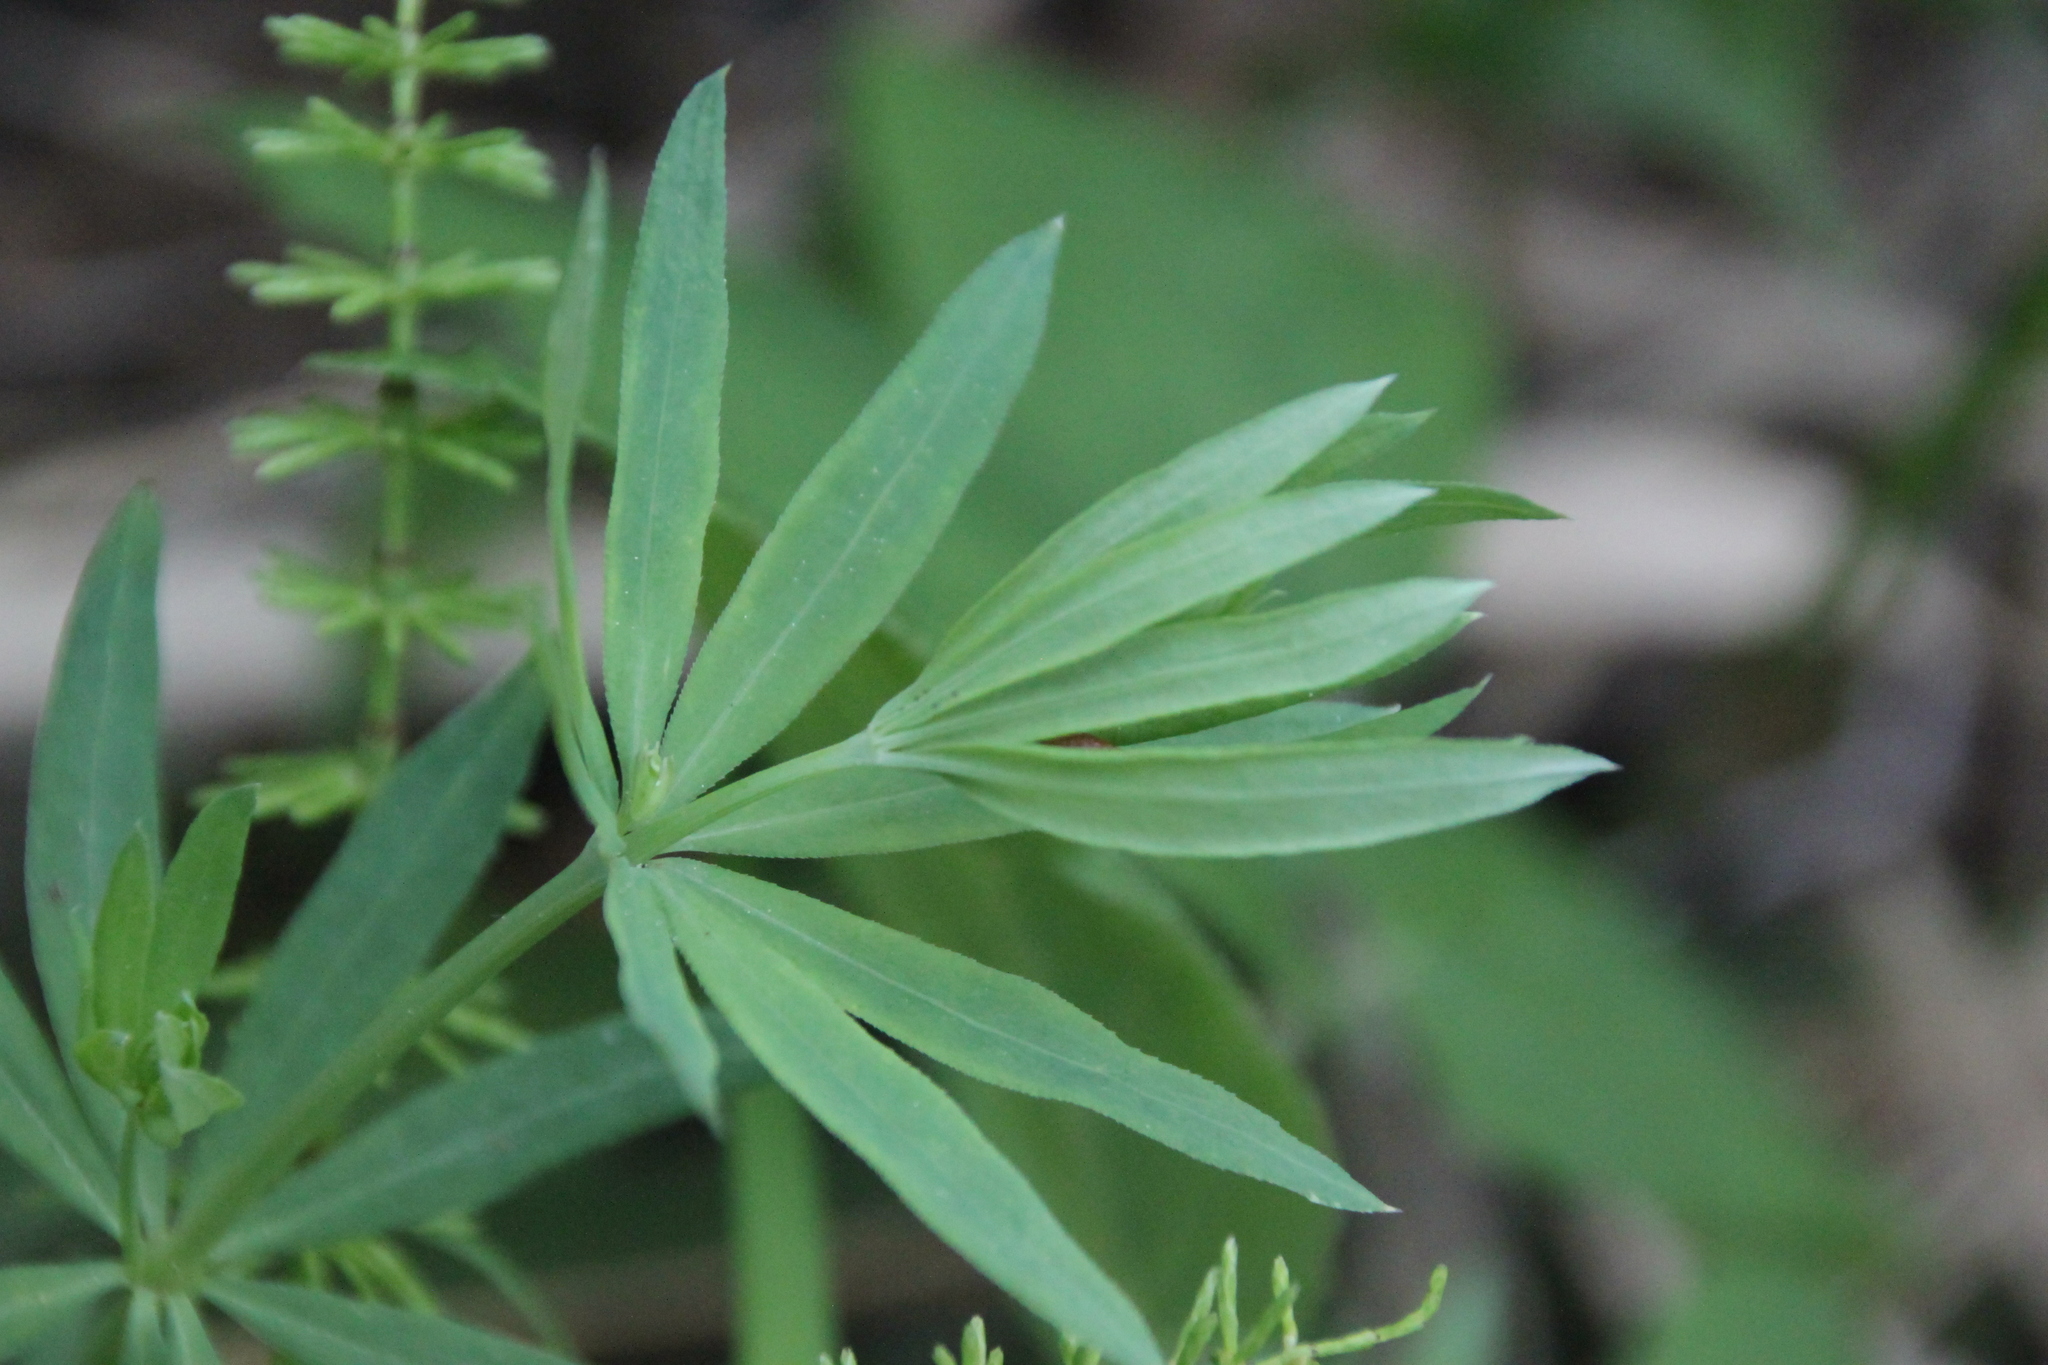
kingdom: Plantae
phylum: Tracheophyta
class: Magnoliopsida
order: Gentianales
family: Rubiaceae
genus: Galium
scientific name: Galium intermedium
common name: Bedstraw
